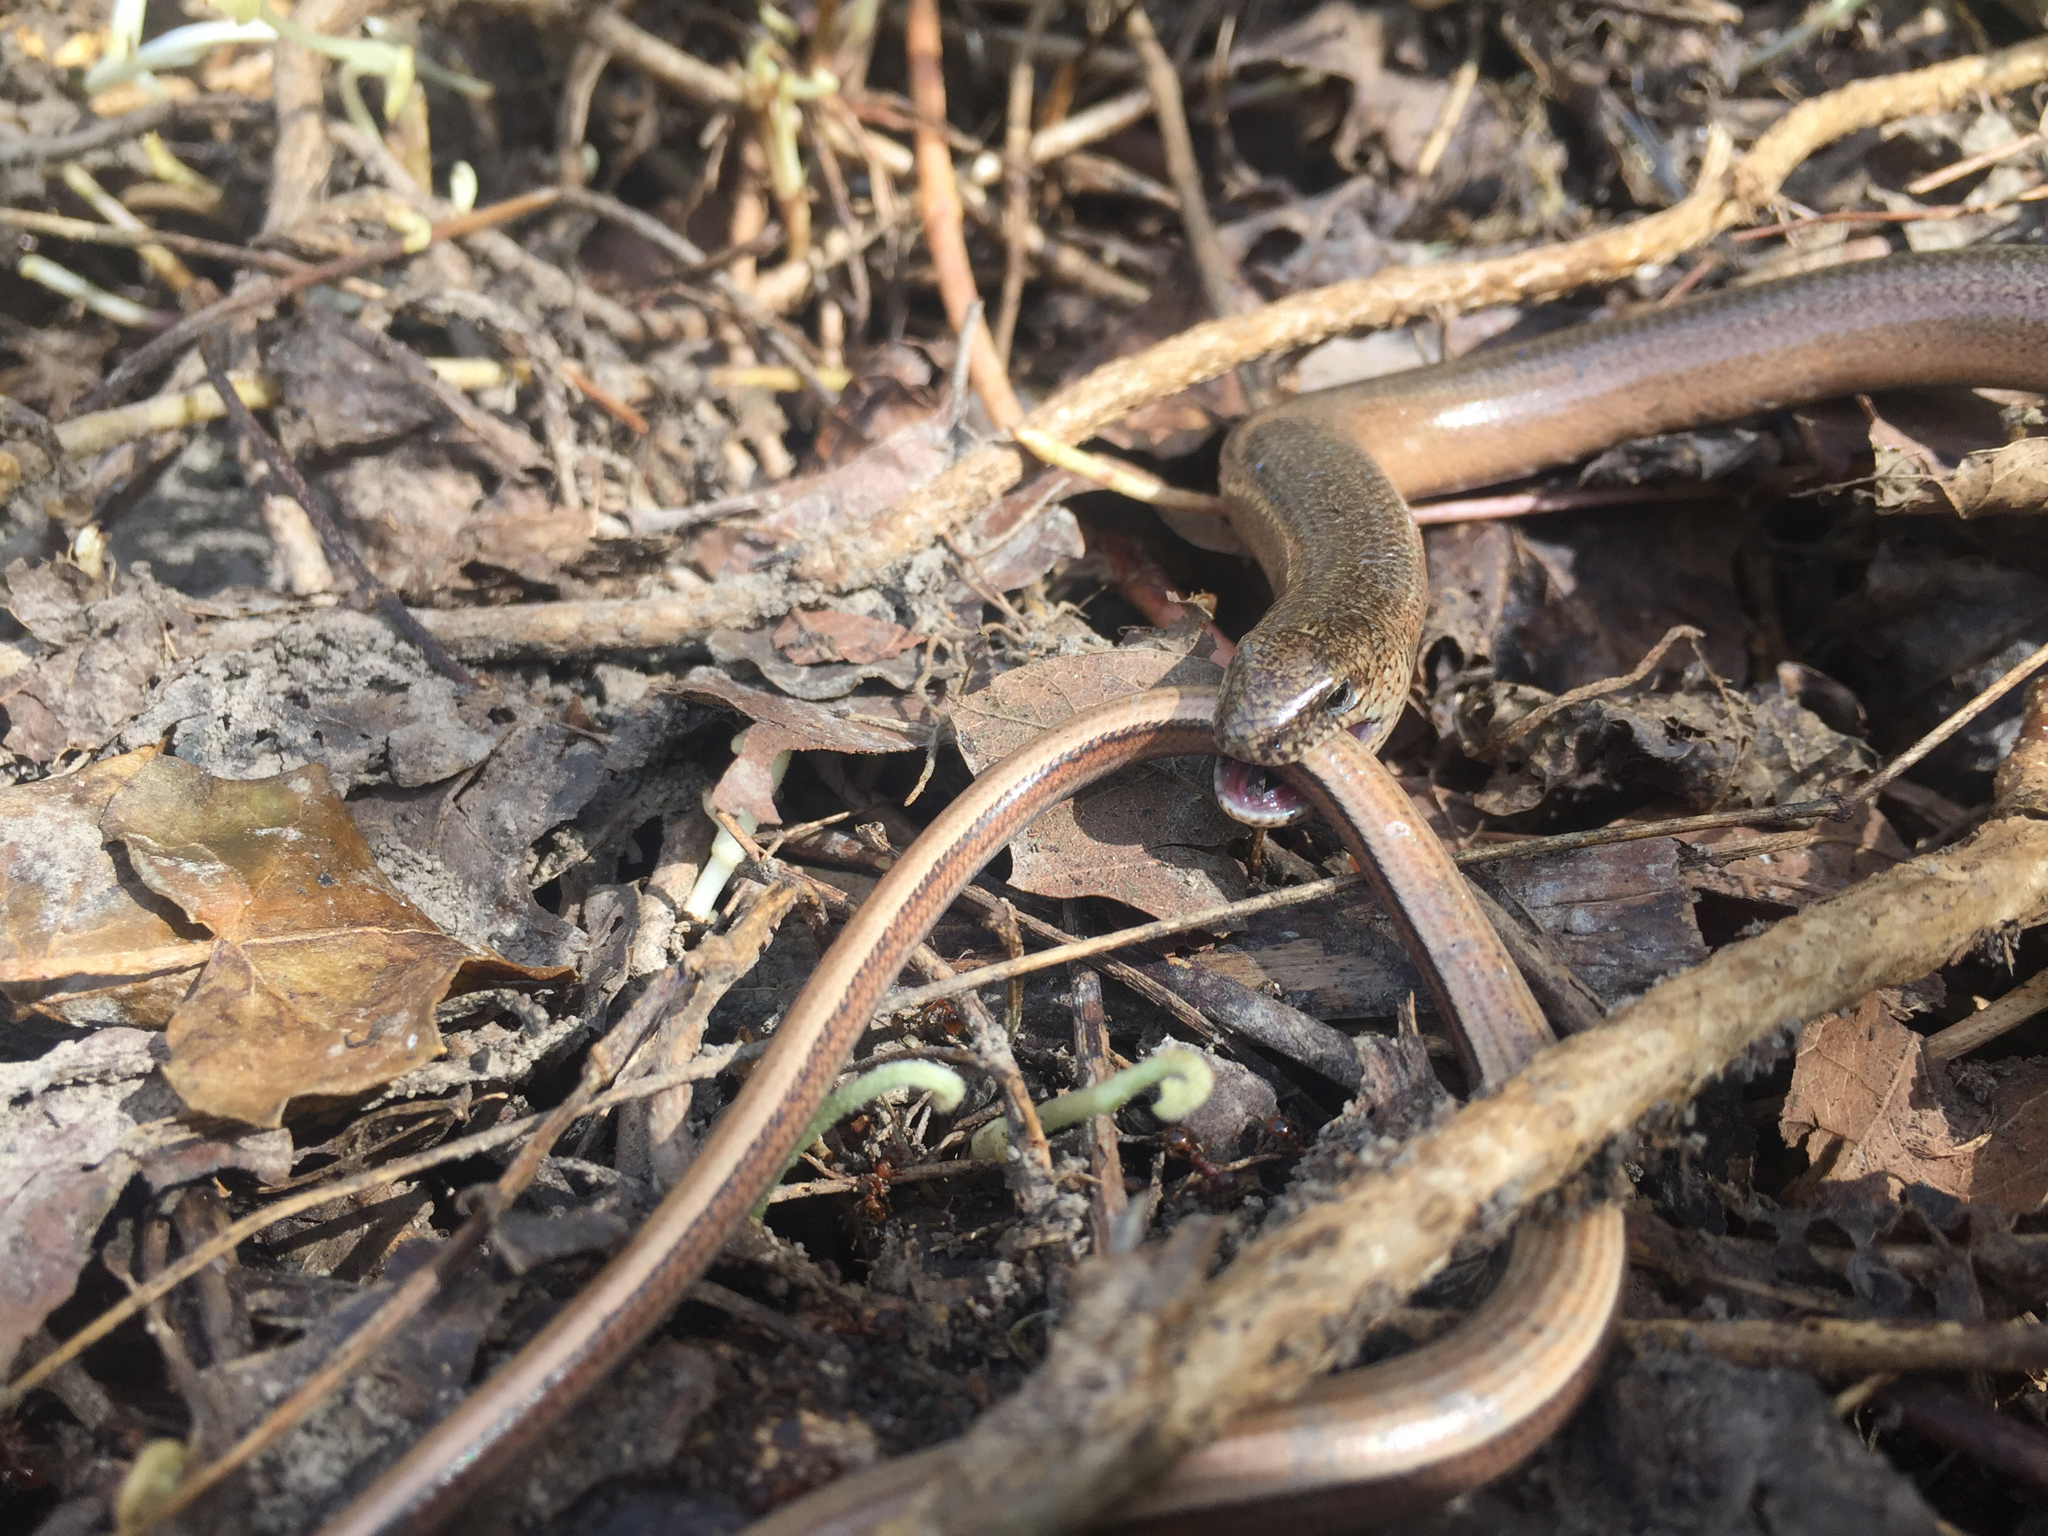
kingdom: Animalia
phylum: Chordata
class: Squamata
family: Anguidae
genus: Anguis
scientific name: Anguis fragilis
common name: Slow worm
